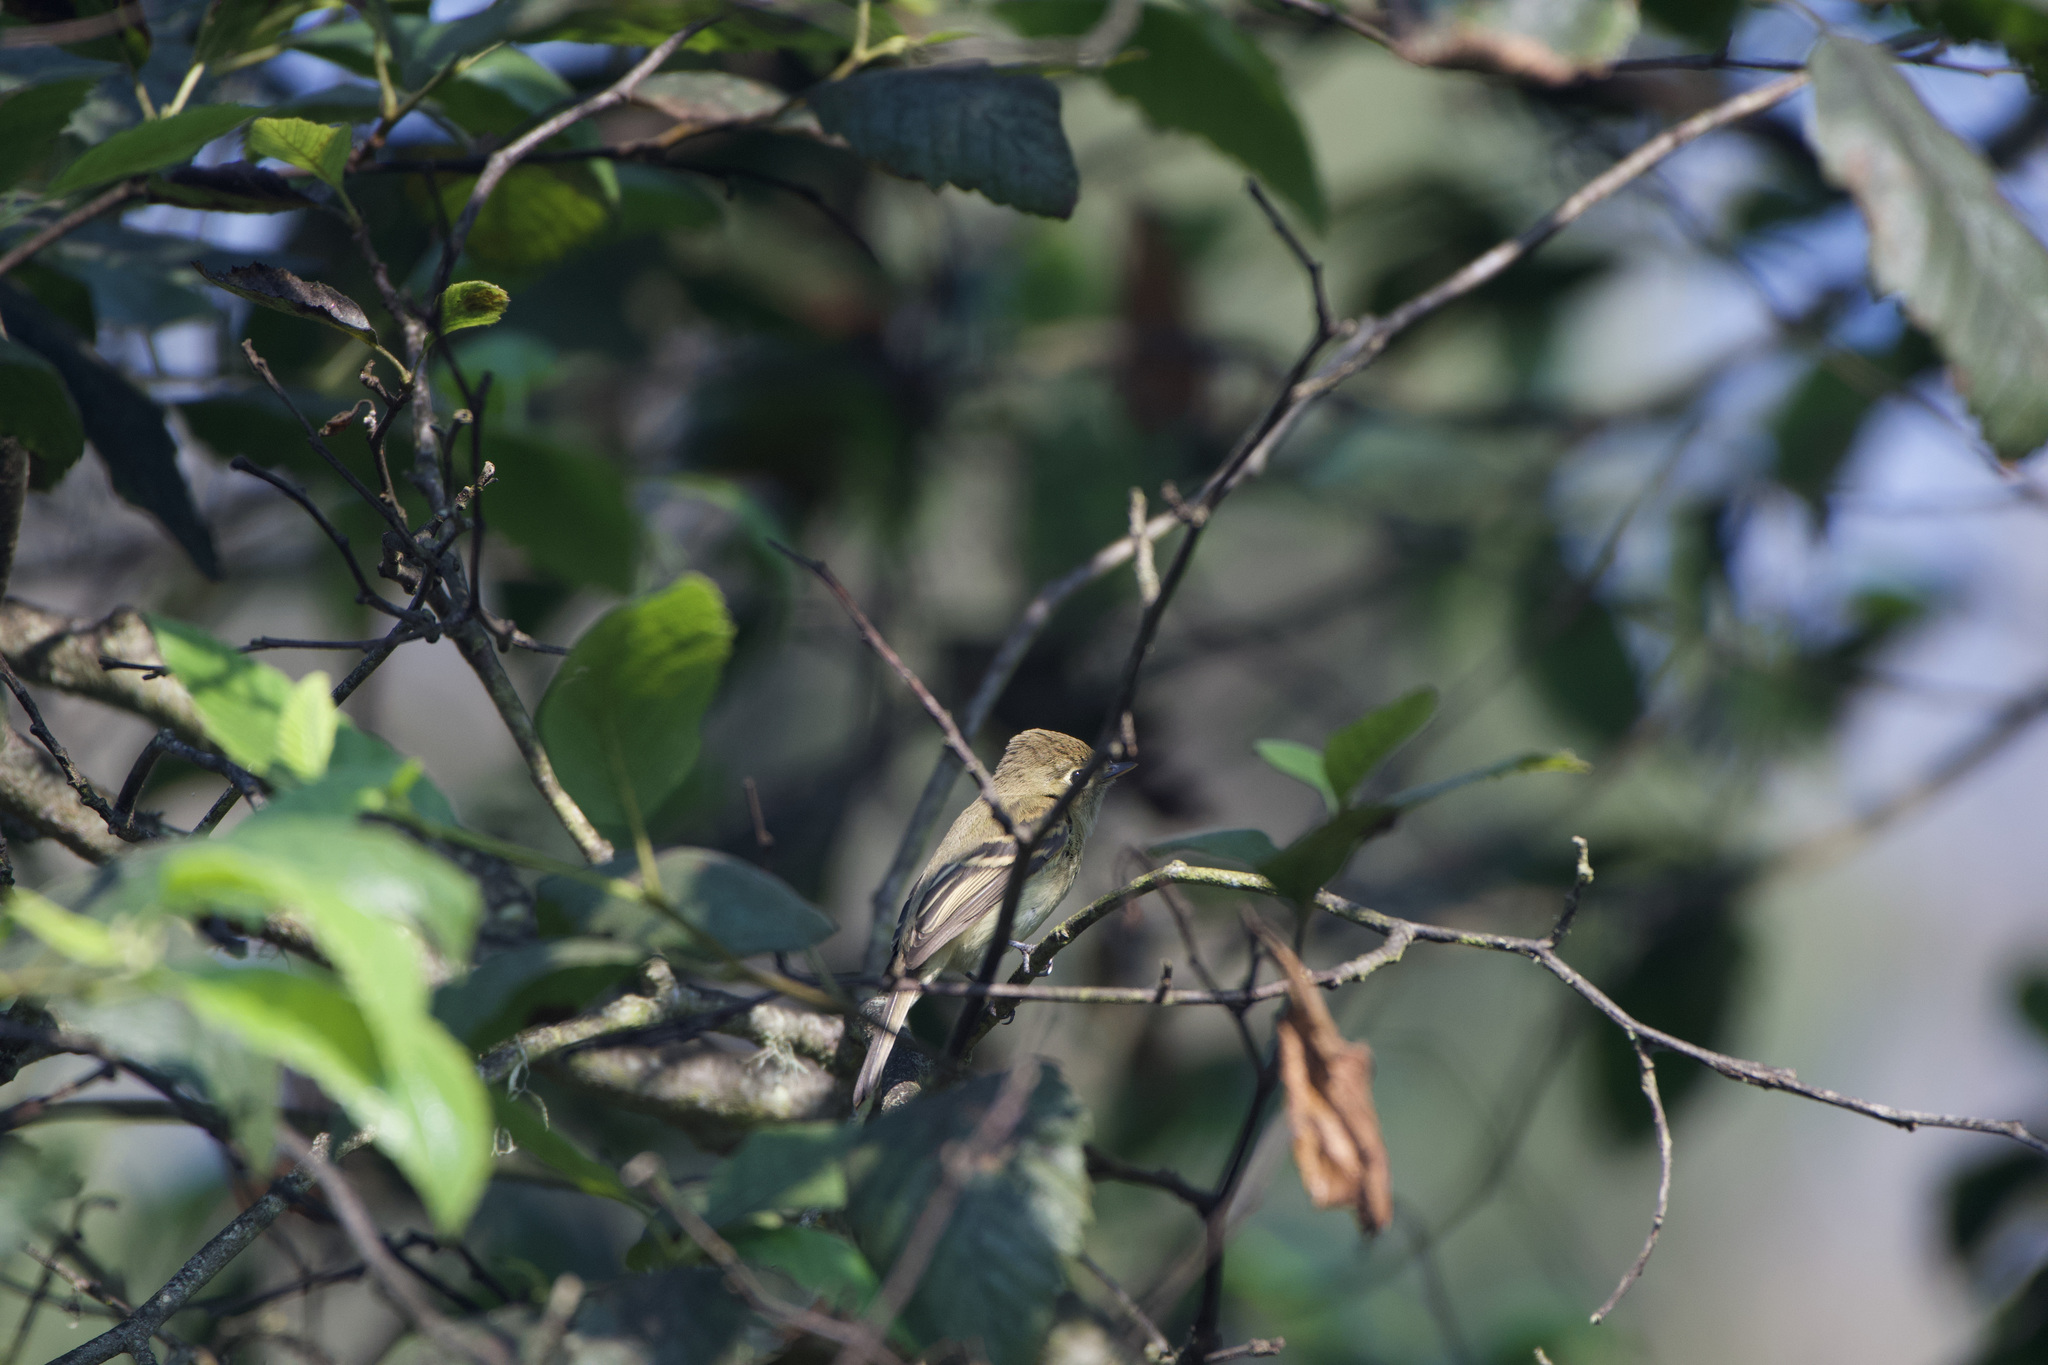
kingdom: Animalia
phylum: Chordata
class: Aves
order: Passeriformes
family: Tyrannidae
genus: Empidonax
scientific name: Empidonax difficilis
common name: Pacific-slope flycatcher
